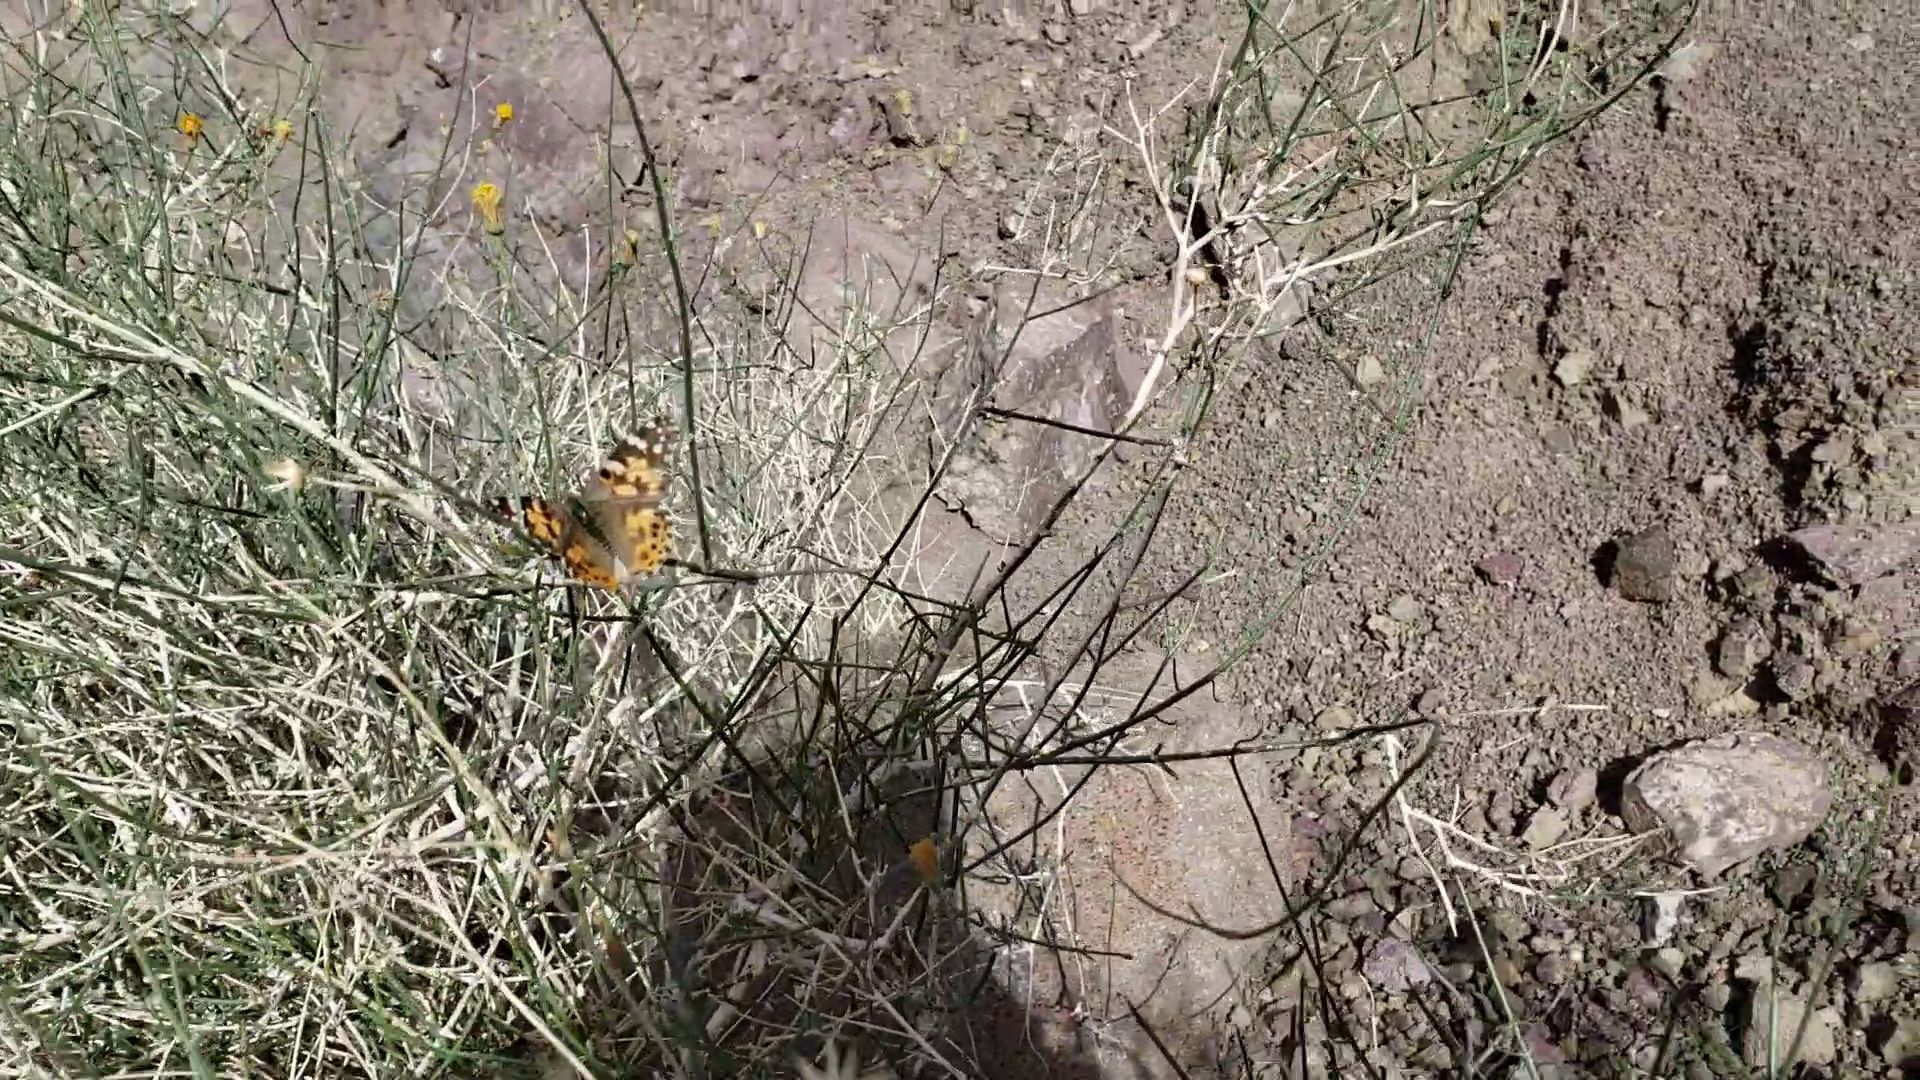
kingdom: Animalia
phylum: Arthropoda
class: Insecta
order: Lepidoptera
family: Nymphalidae
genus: Vanessa
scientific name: Vanessa cardui
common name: Painted lady
